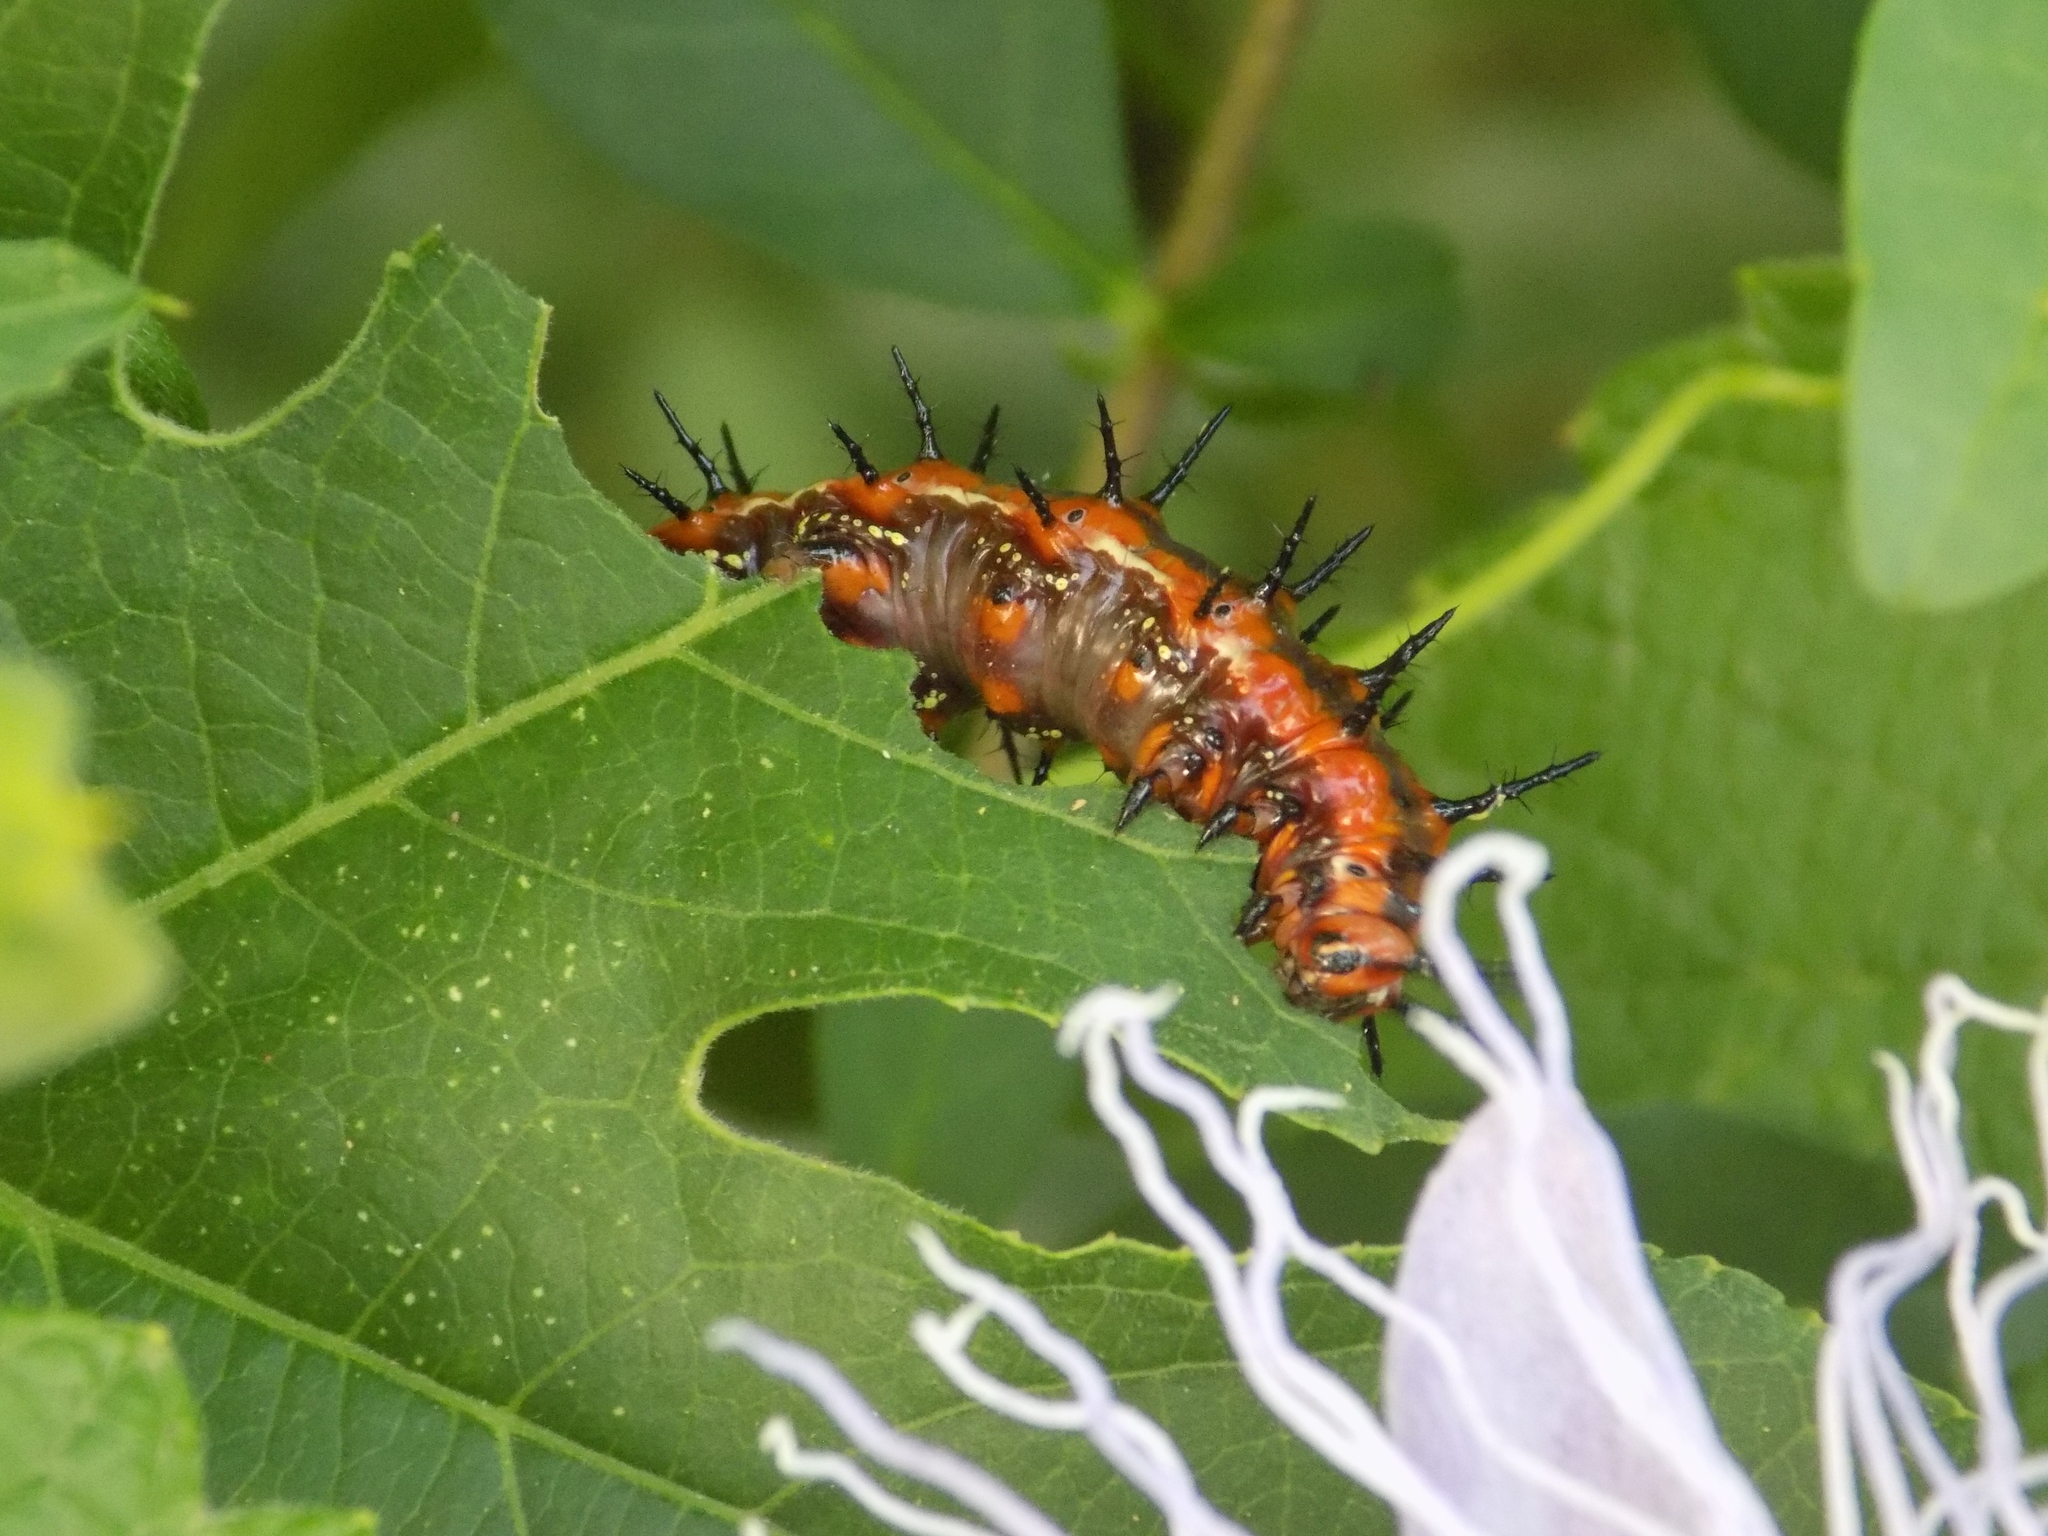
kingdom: Animalia
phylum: Arthropoda
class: Insecta
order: Lepidoptera
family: Nymphalidae
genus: Dione
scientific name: Dione vanillae
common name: Gulf fritillary
